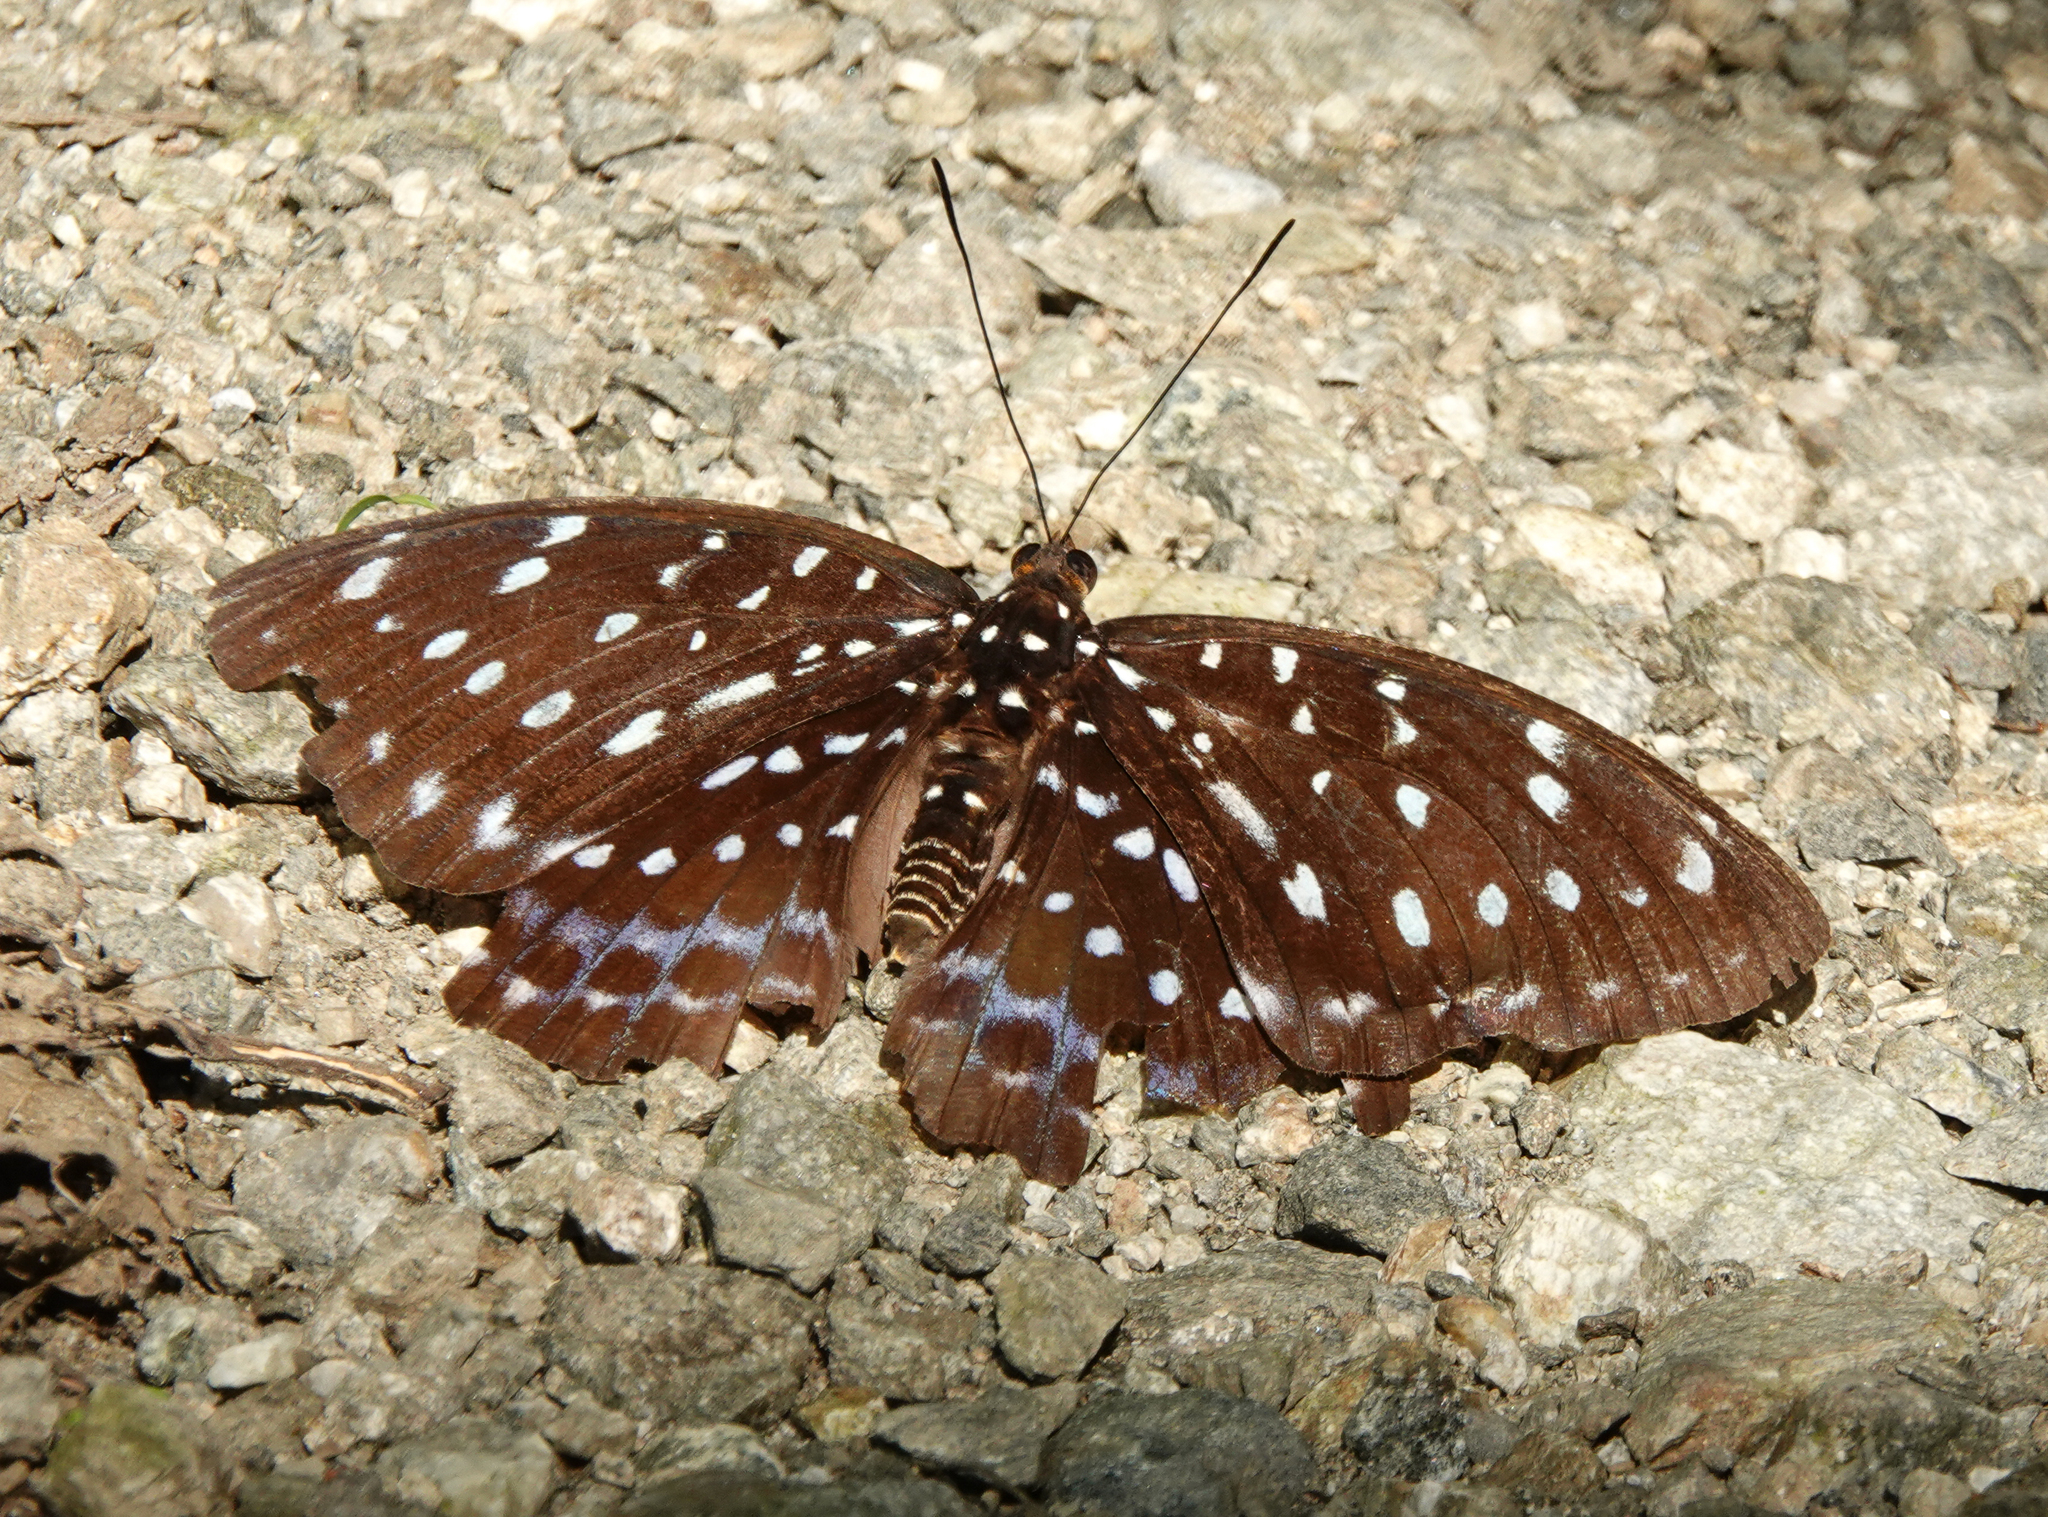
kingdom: Animalia
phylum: Arthropoda
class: Insecta
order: Lepidoptera
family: Nymphalidae
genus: Lexias
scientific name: Lexias dirtea
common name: Black-tipped archduke
